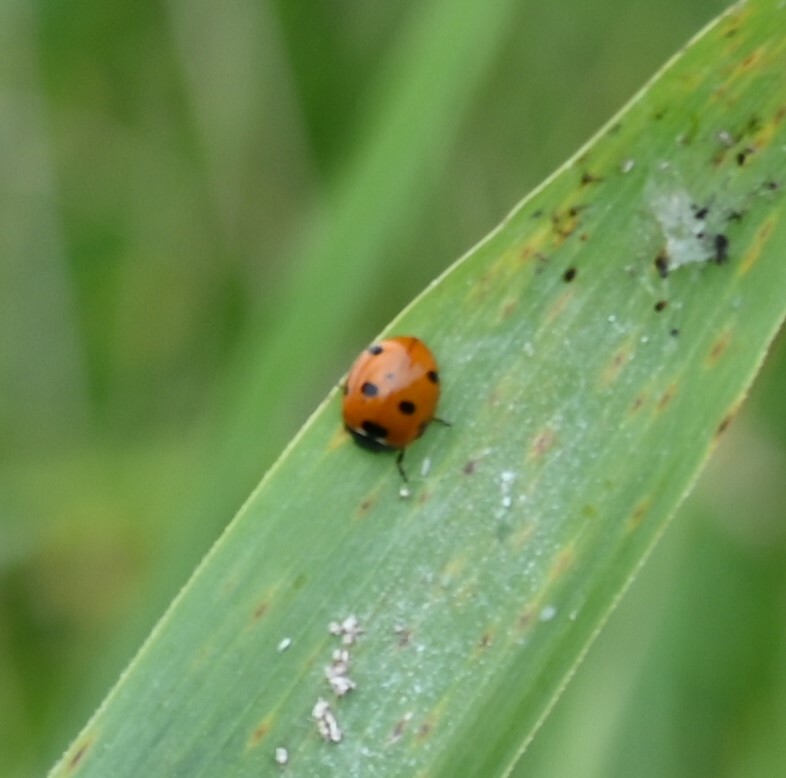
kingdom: Animalia
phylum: Arthropoda
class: Insecta
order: Coleoptera
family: Coccinellidae
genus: Coccinella
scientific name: Coccinella septempunctata
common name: Sevenspotted lady beetle
